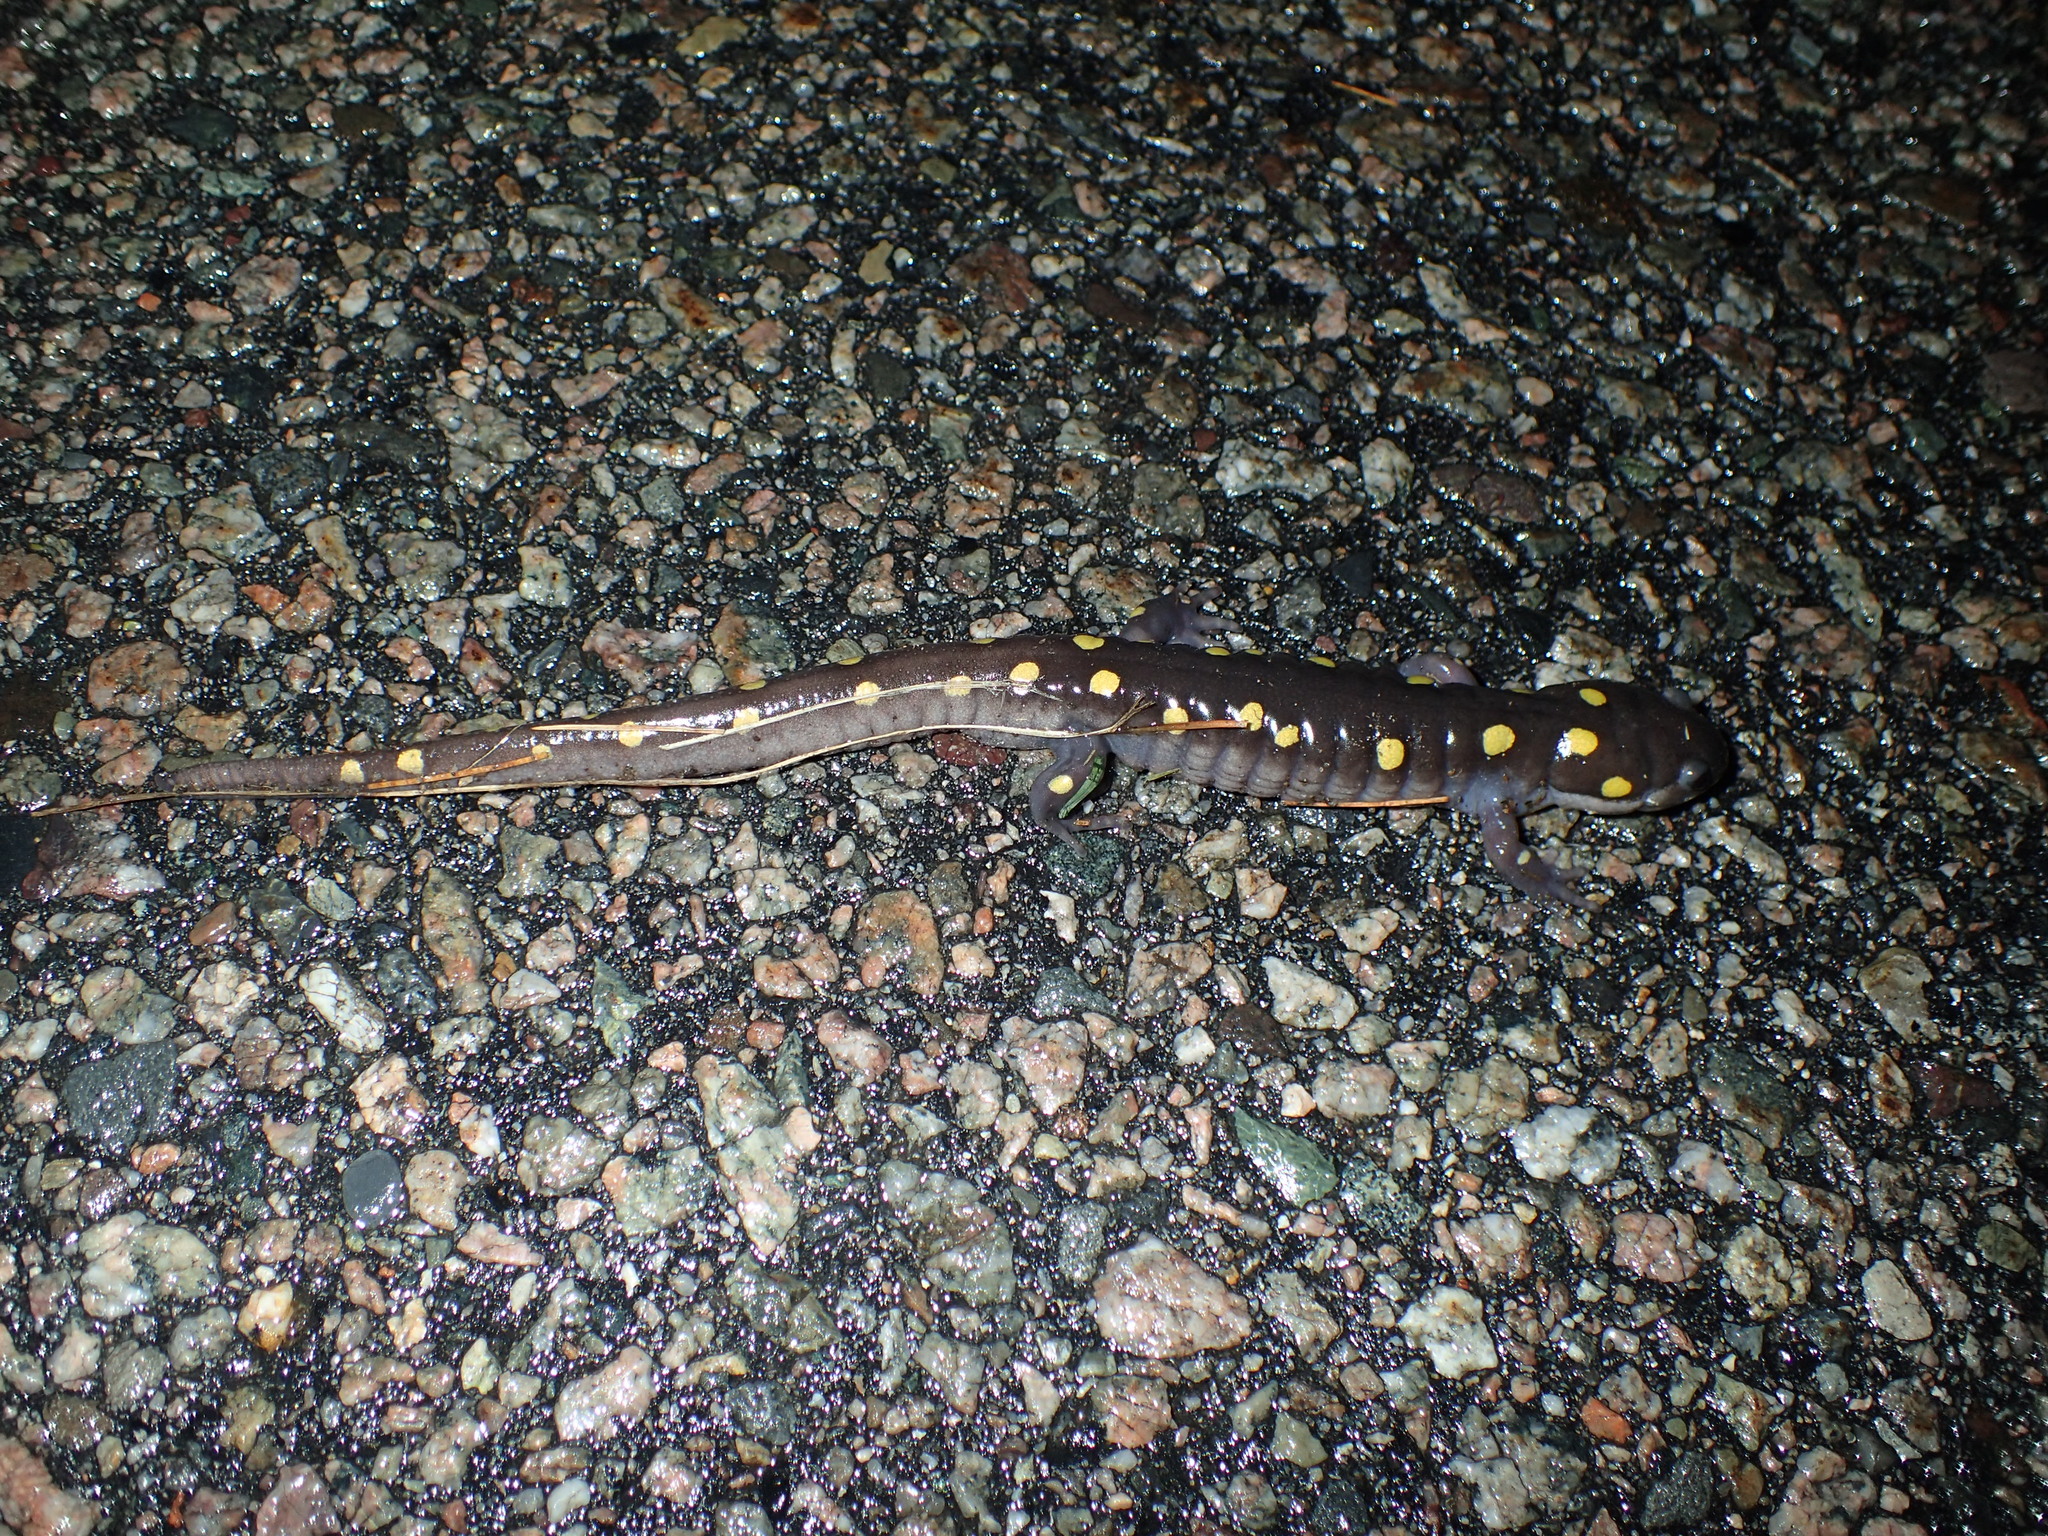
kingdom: Animalia
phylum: Chordata
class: Amphibia
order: Caudata
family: Ambystomatidae
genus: Ambystoma
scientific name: Ambystoma maculatum
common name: Spotted salamander
